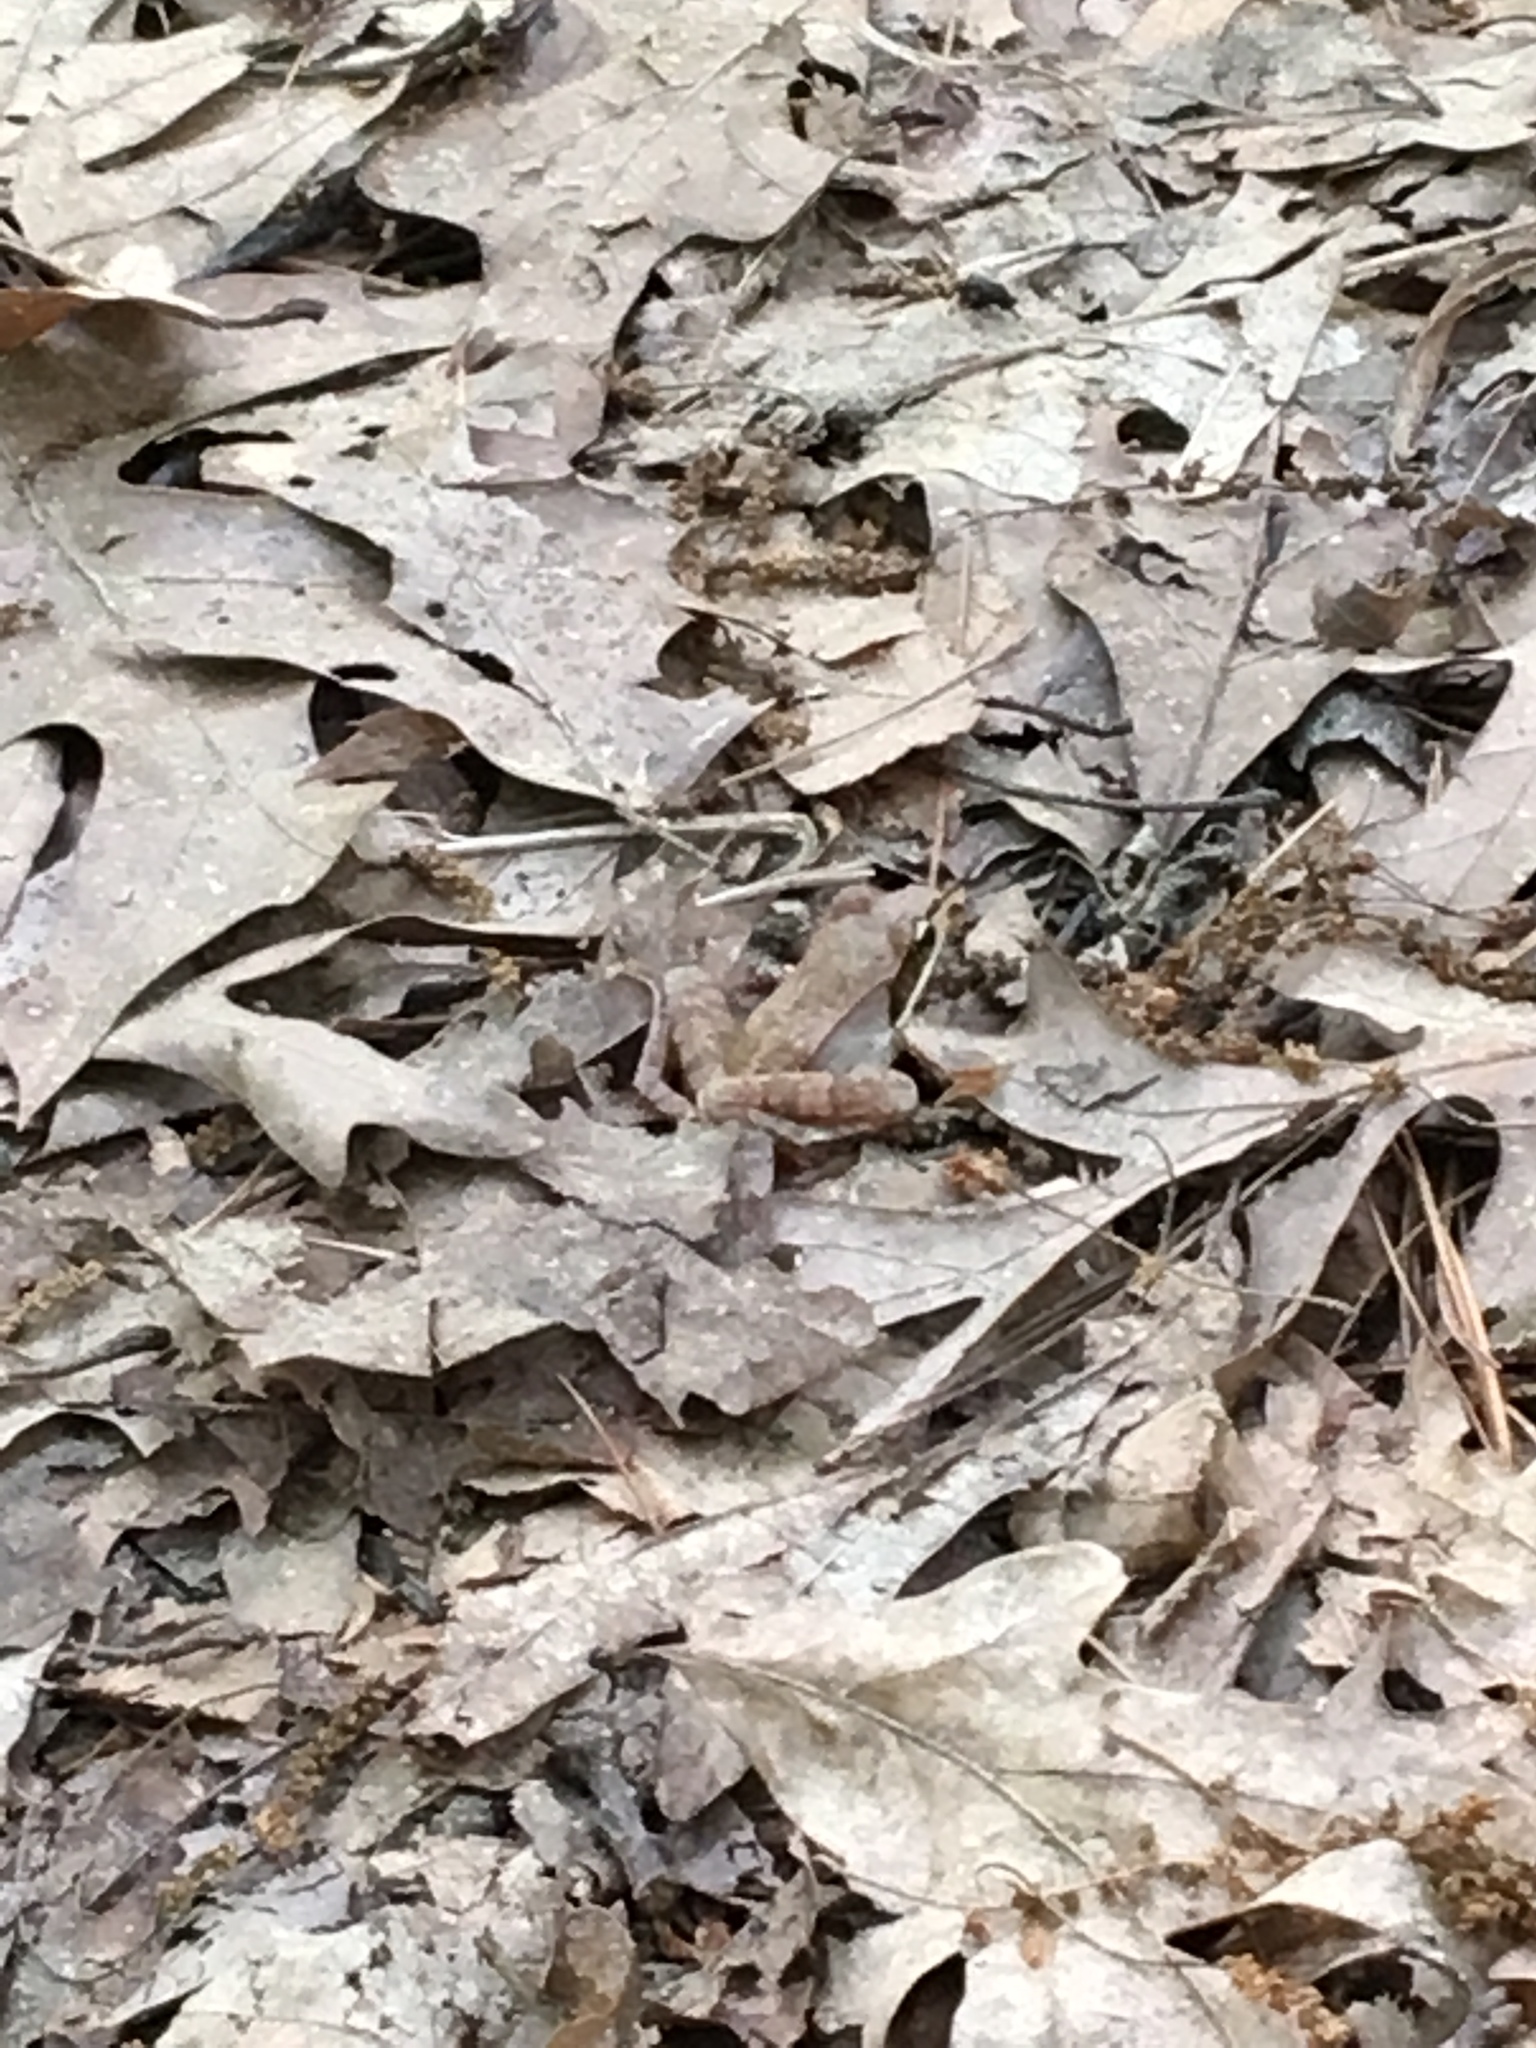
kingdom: Animalia
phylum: Chordata
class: Amphibia
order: Anura
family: Ranidae
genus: Lithobates
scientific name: Lithobates sylvaticus
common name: Wood frog
